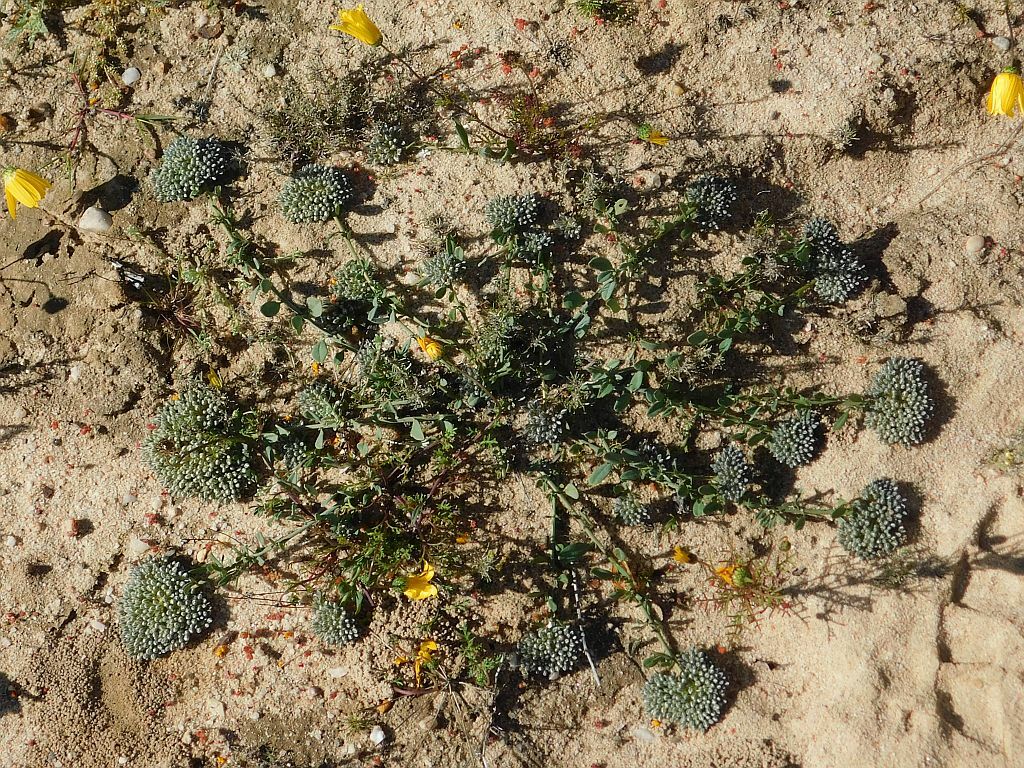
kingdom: Plantae
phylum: Tracheophyta
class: Magnoliopsida
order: Caryophyllales
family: Limeaceae
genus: Limeum
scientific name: Limeum africanum
